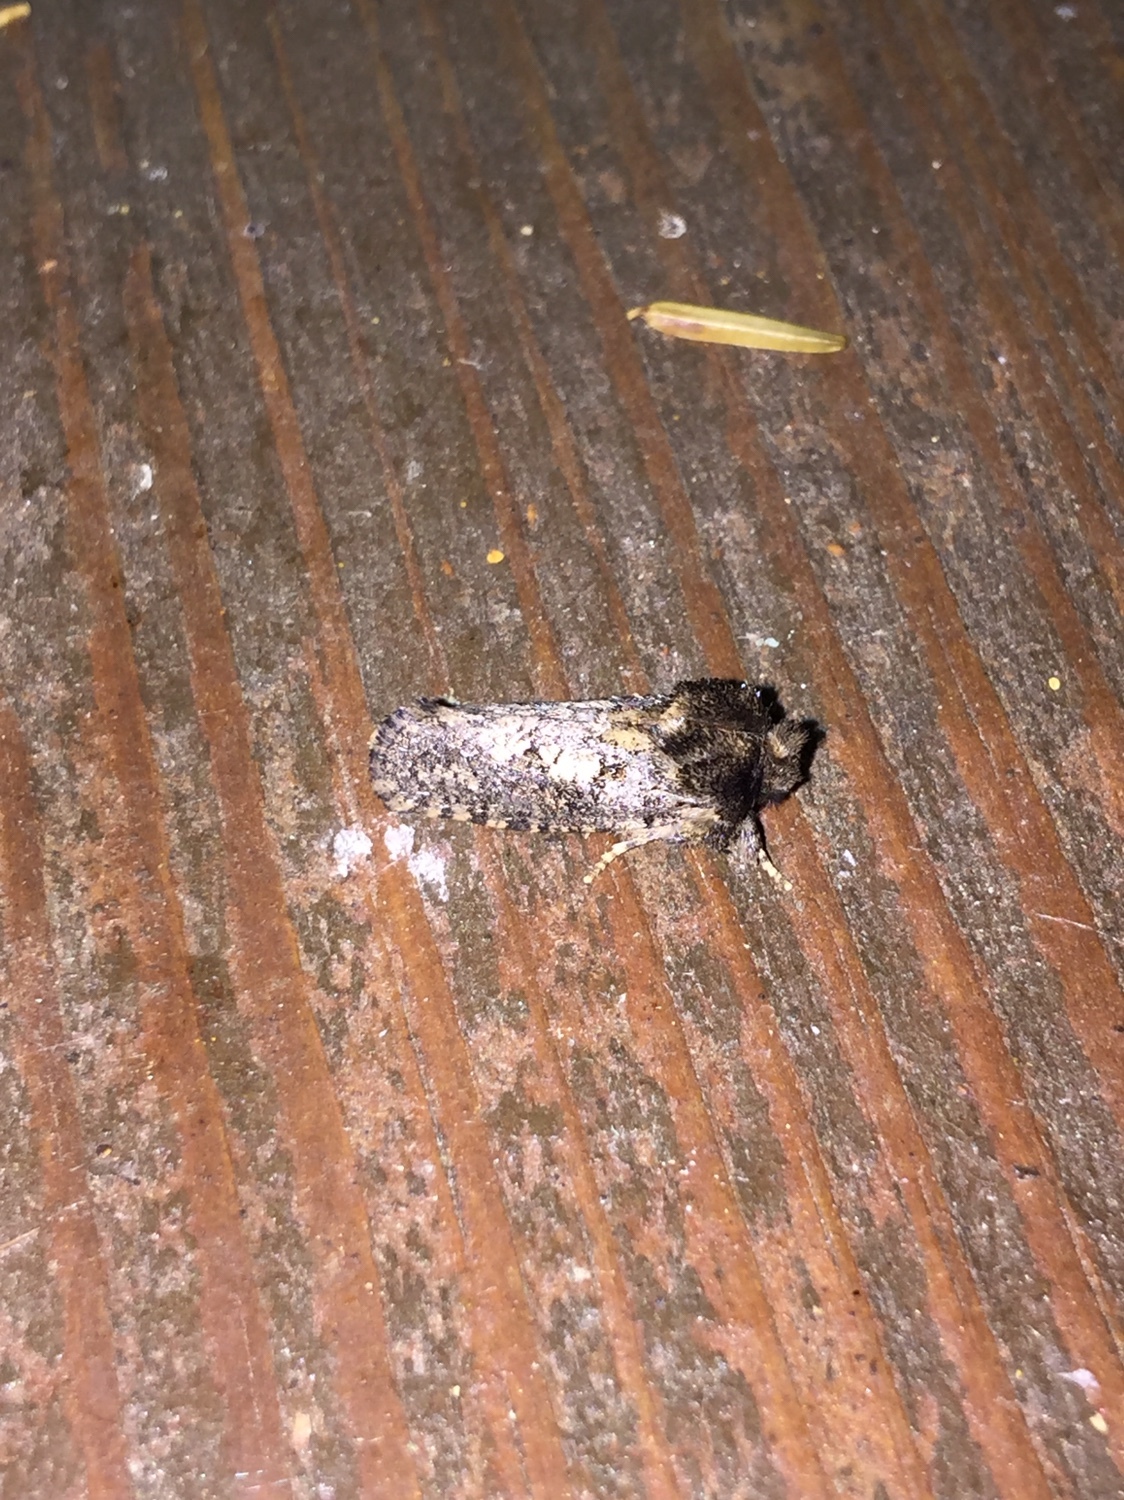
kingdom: Animalia
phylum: Arthropoda
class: Insecta
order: Lepidoptera
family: Tineidae
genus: Acrolophus
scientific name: Acrolophus arcanella
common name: Arcane grass tubeworm moth
